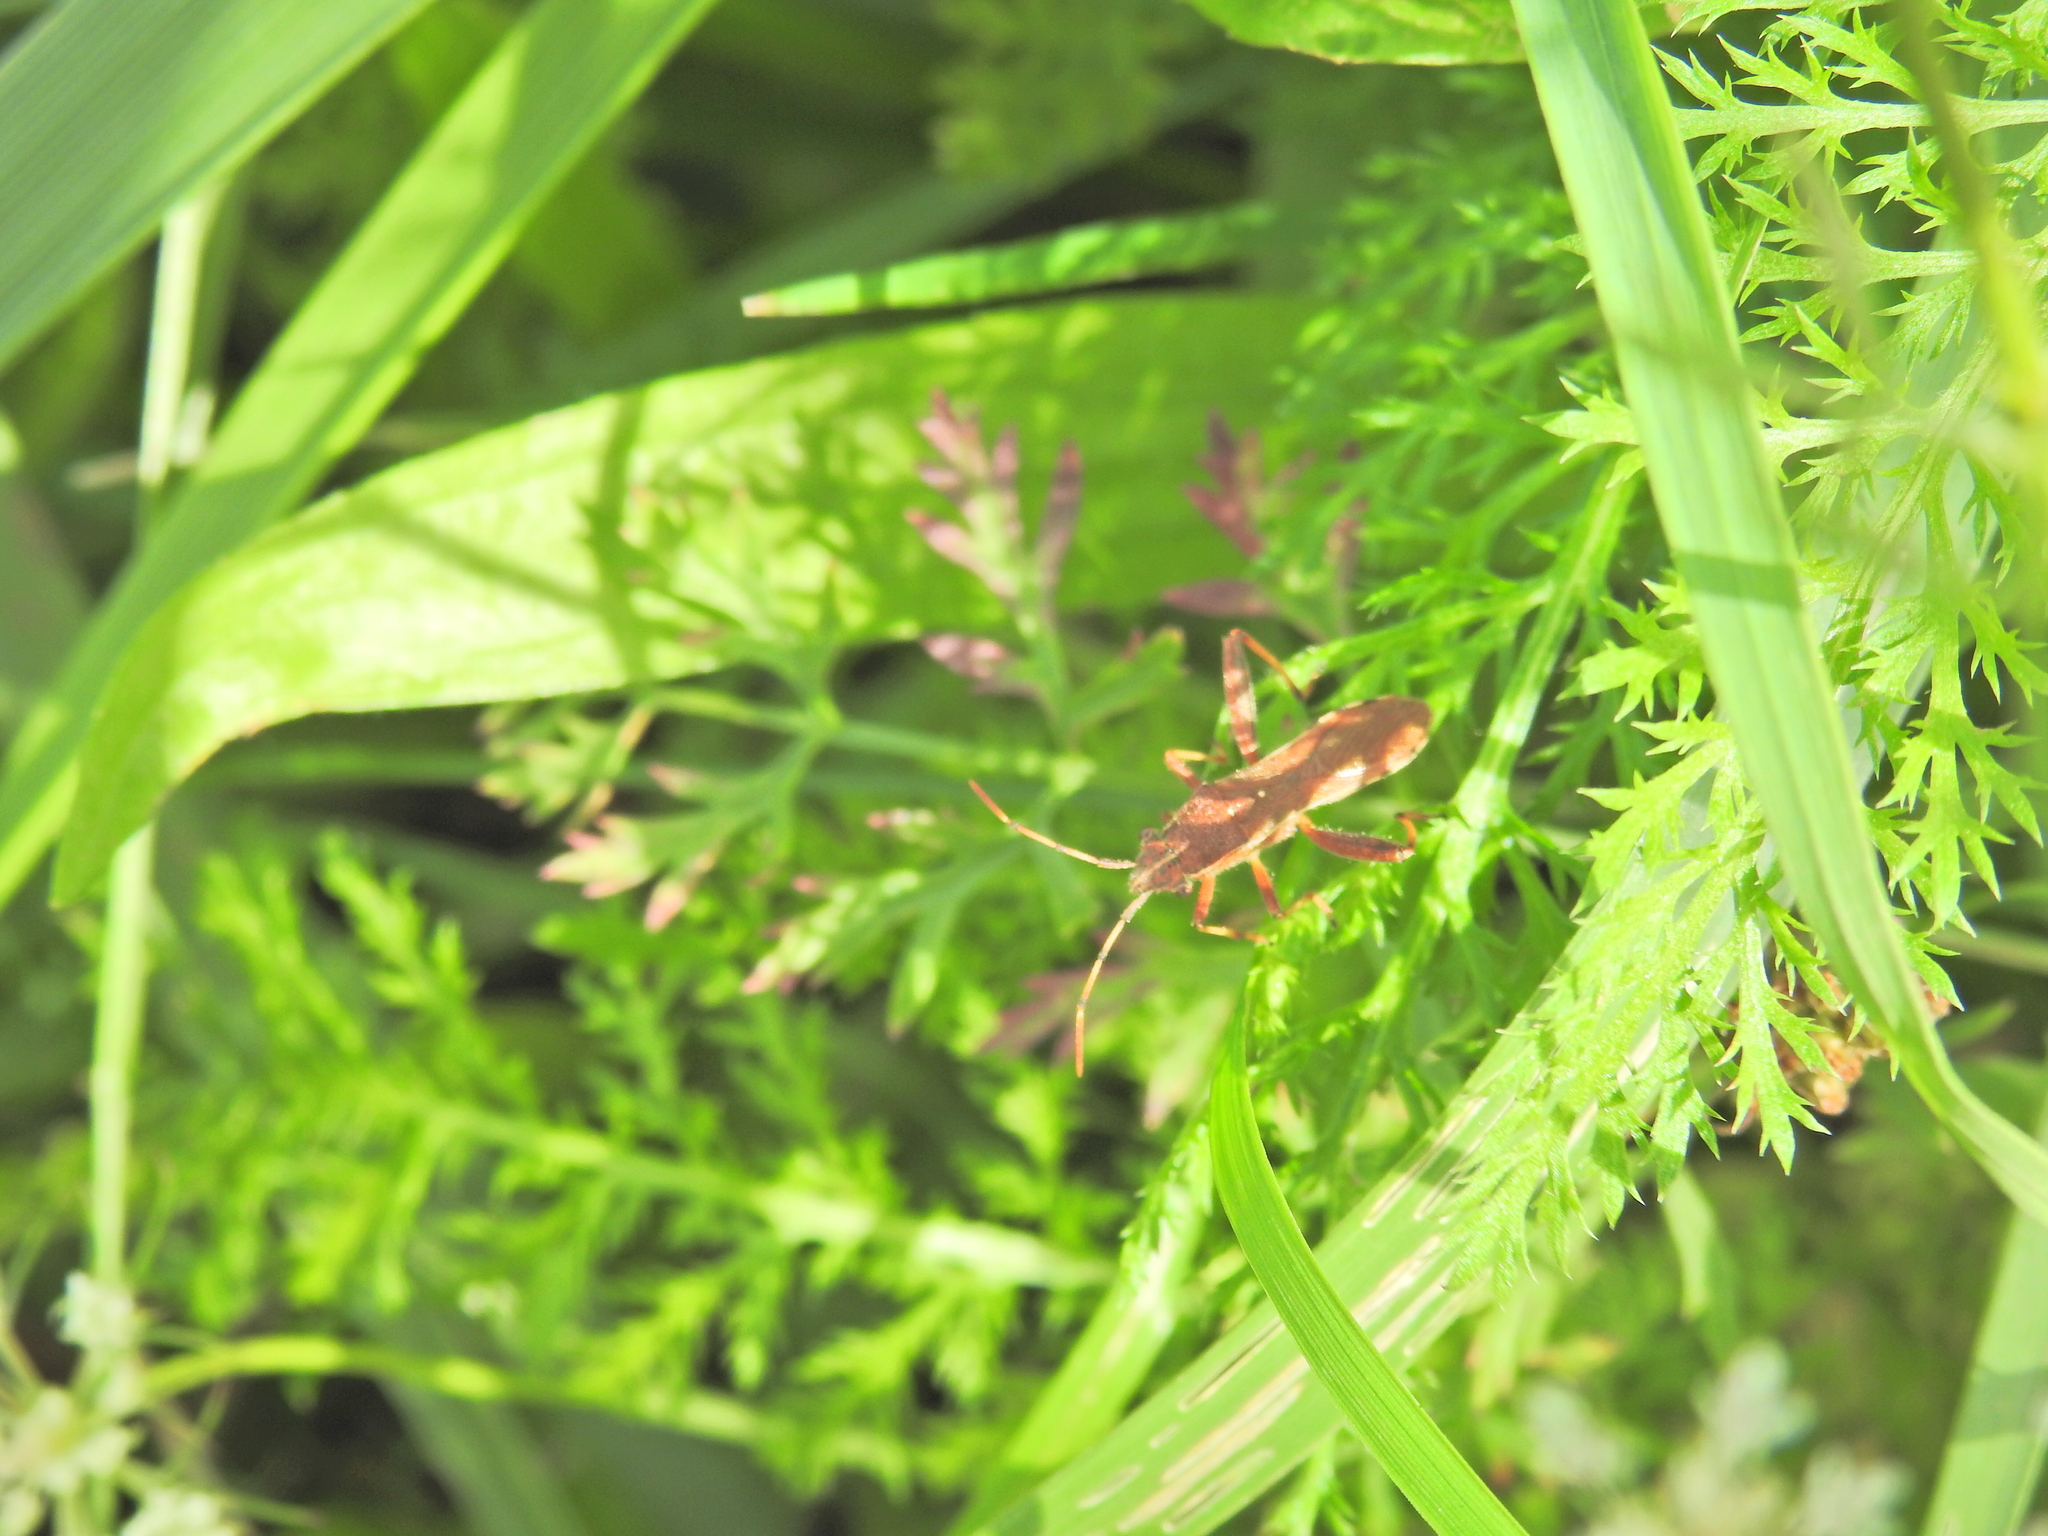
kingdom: Animalia
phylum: Arthropoda
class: Insecta
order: Hemiptera
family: Alydidae
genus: Camptopus
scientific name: Camptopus lateralis
